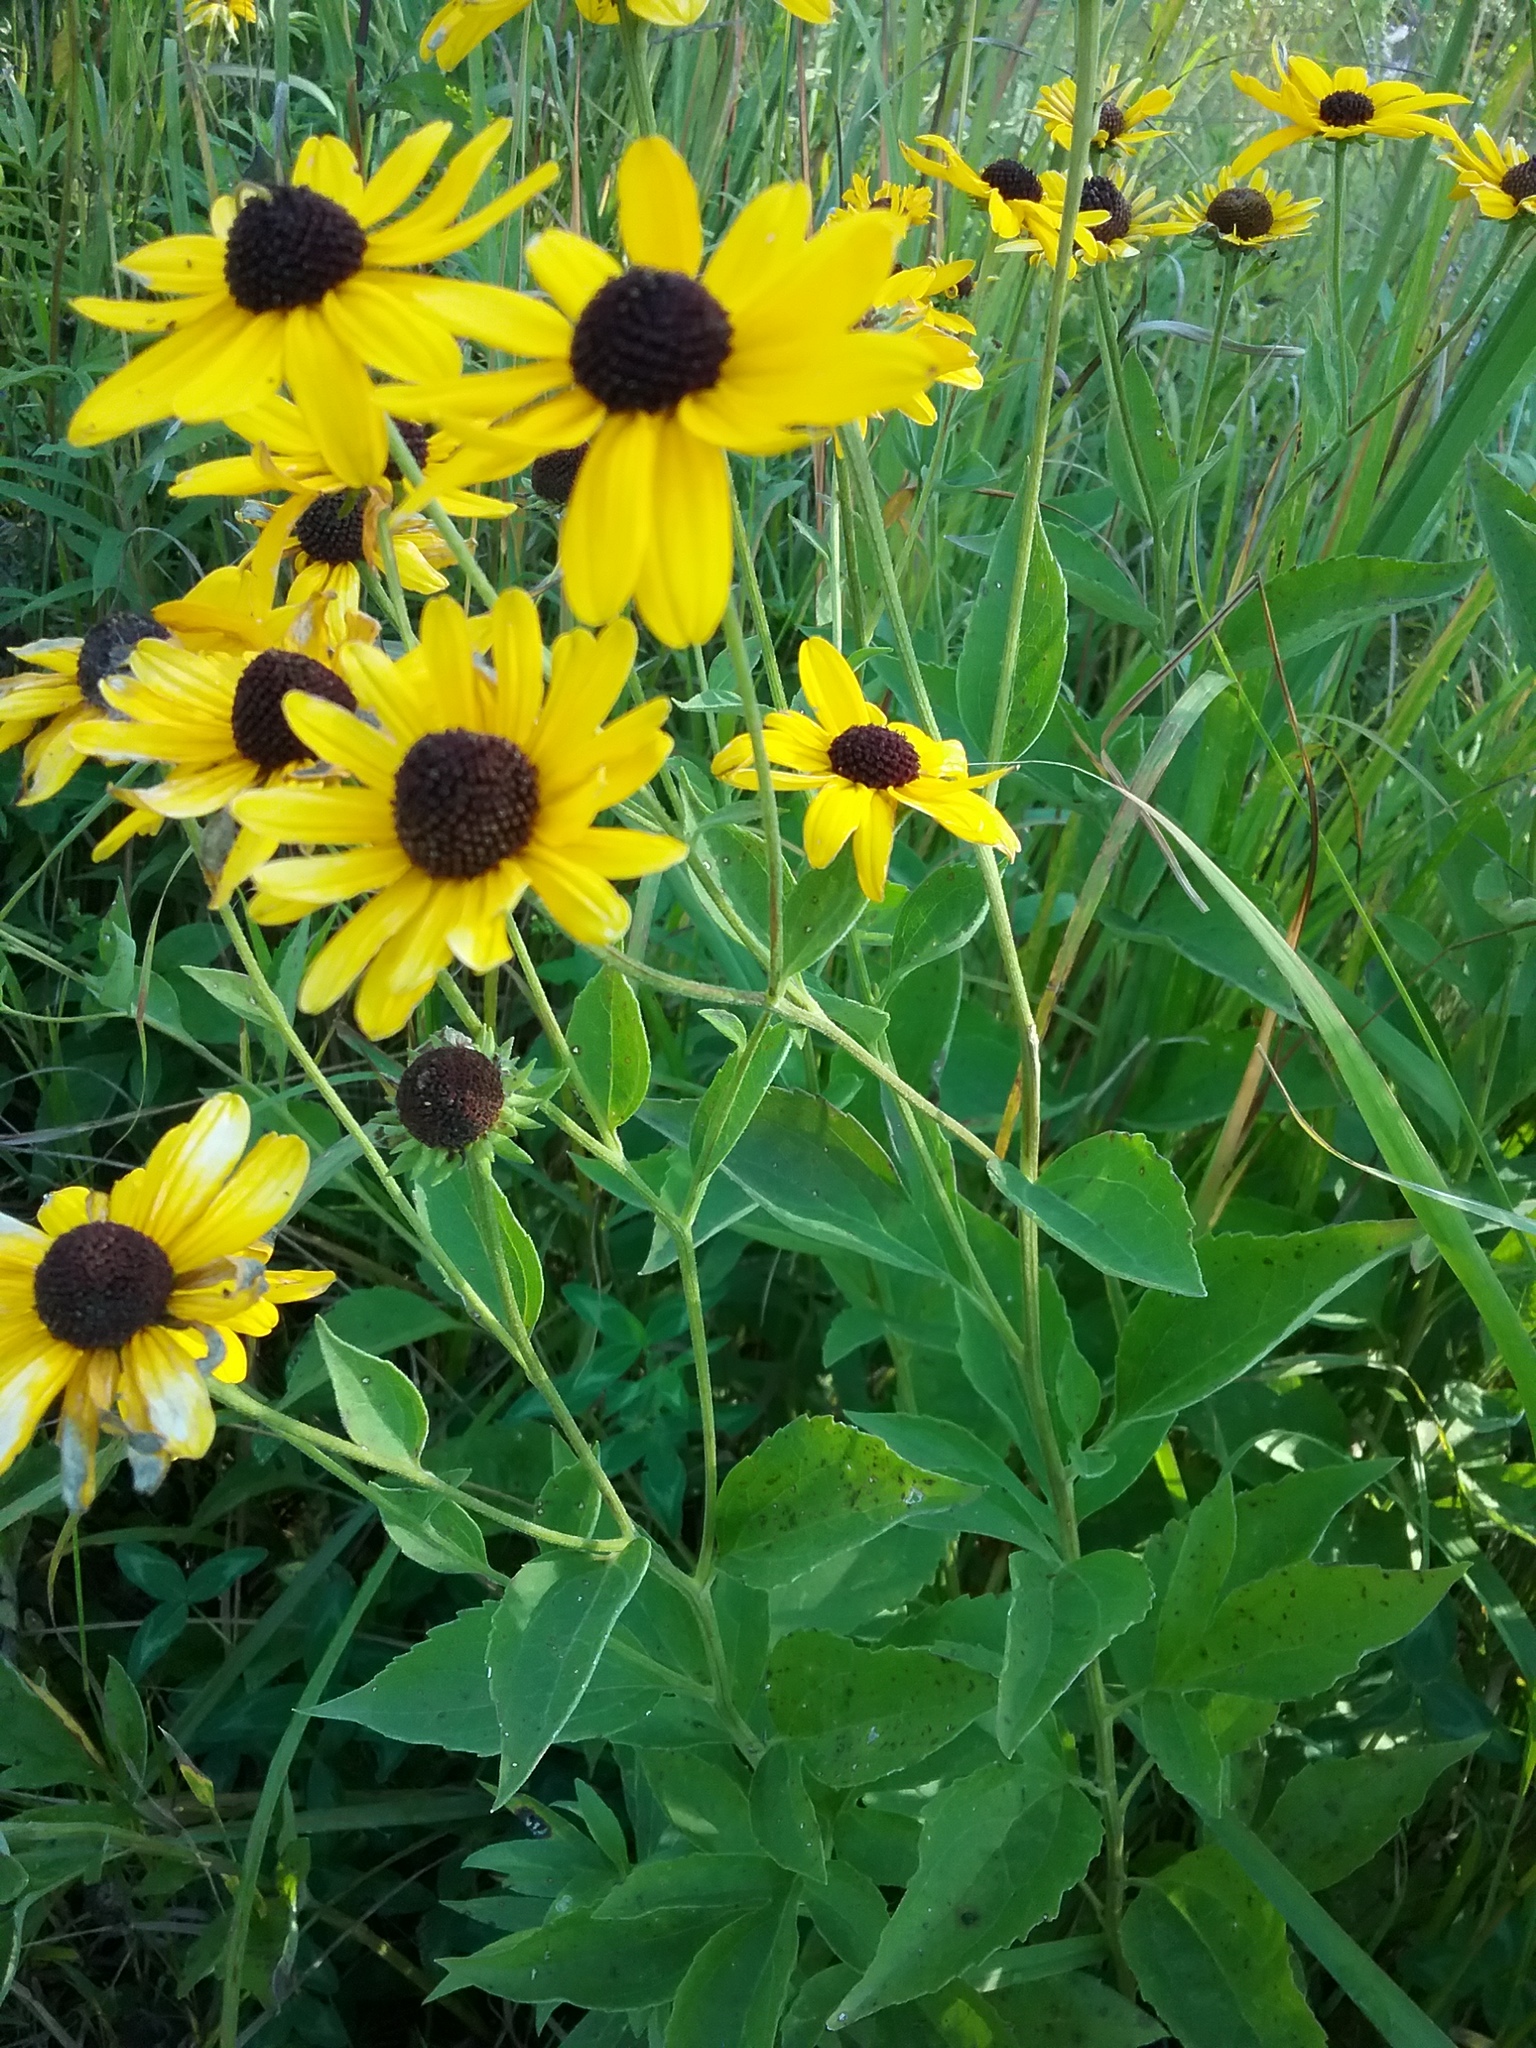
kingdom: Plantae
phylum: Tracheophyta
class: Magnoliopsida
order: Asterales
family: Asteraceae
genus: Rudbeckia
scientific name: Rudbeckia subtomentosa
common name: Sweet coneflower
